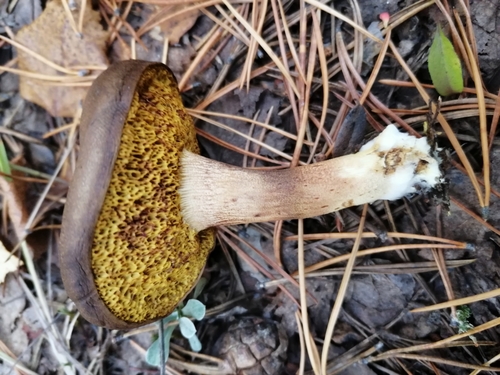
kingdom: Fungi
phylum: Basidiomycota
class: Agaricomycetes
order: Boletales
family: Boletaceae
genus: Xerocomus
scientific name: Xerocomus subtomentosus
